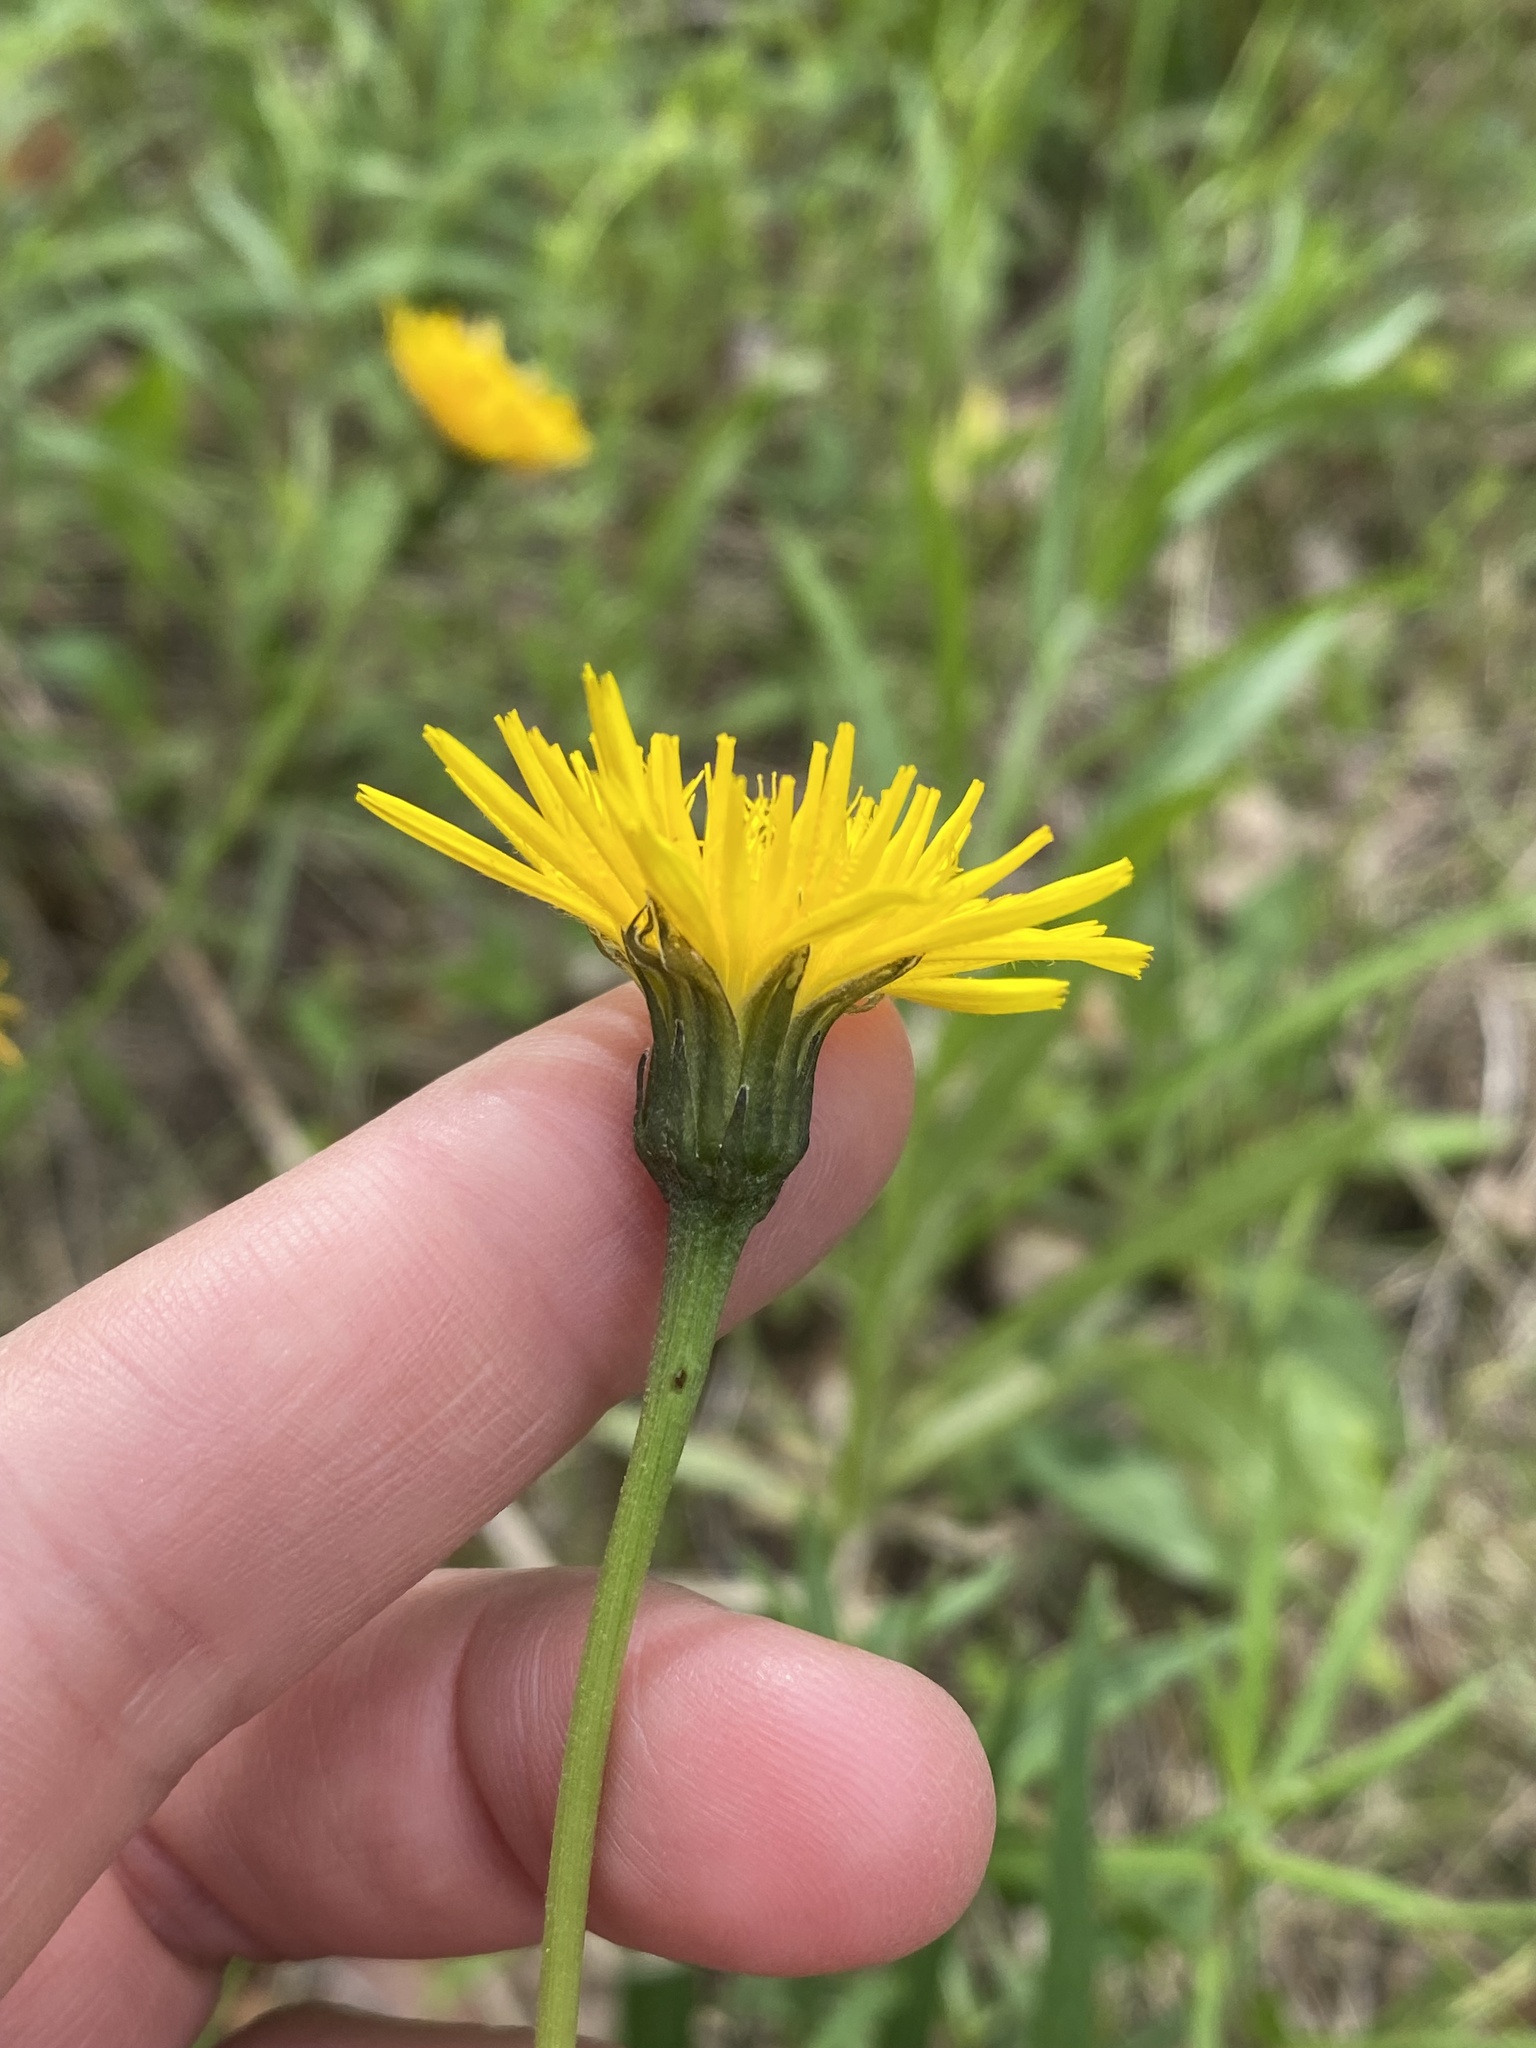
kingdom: Plantae
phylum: Tracheophyta
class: Magnoliopsida
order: Asterales
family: Asteraceae
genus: Leontodon
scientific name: Leontodon hispidus
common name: Rough hawkbit
